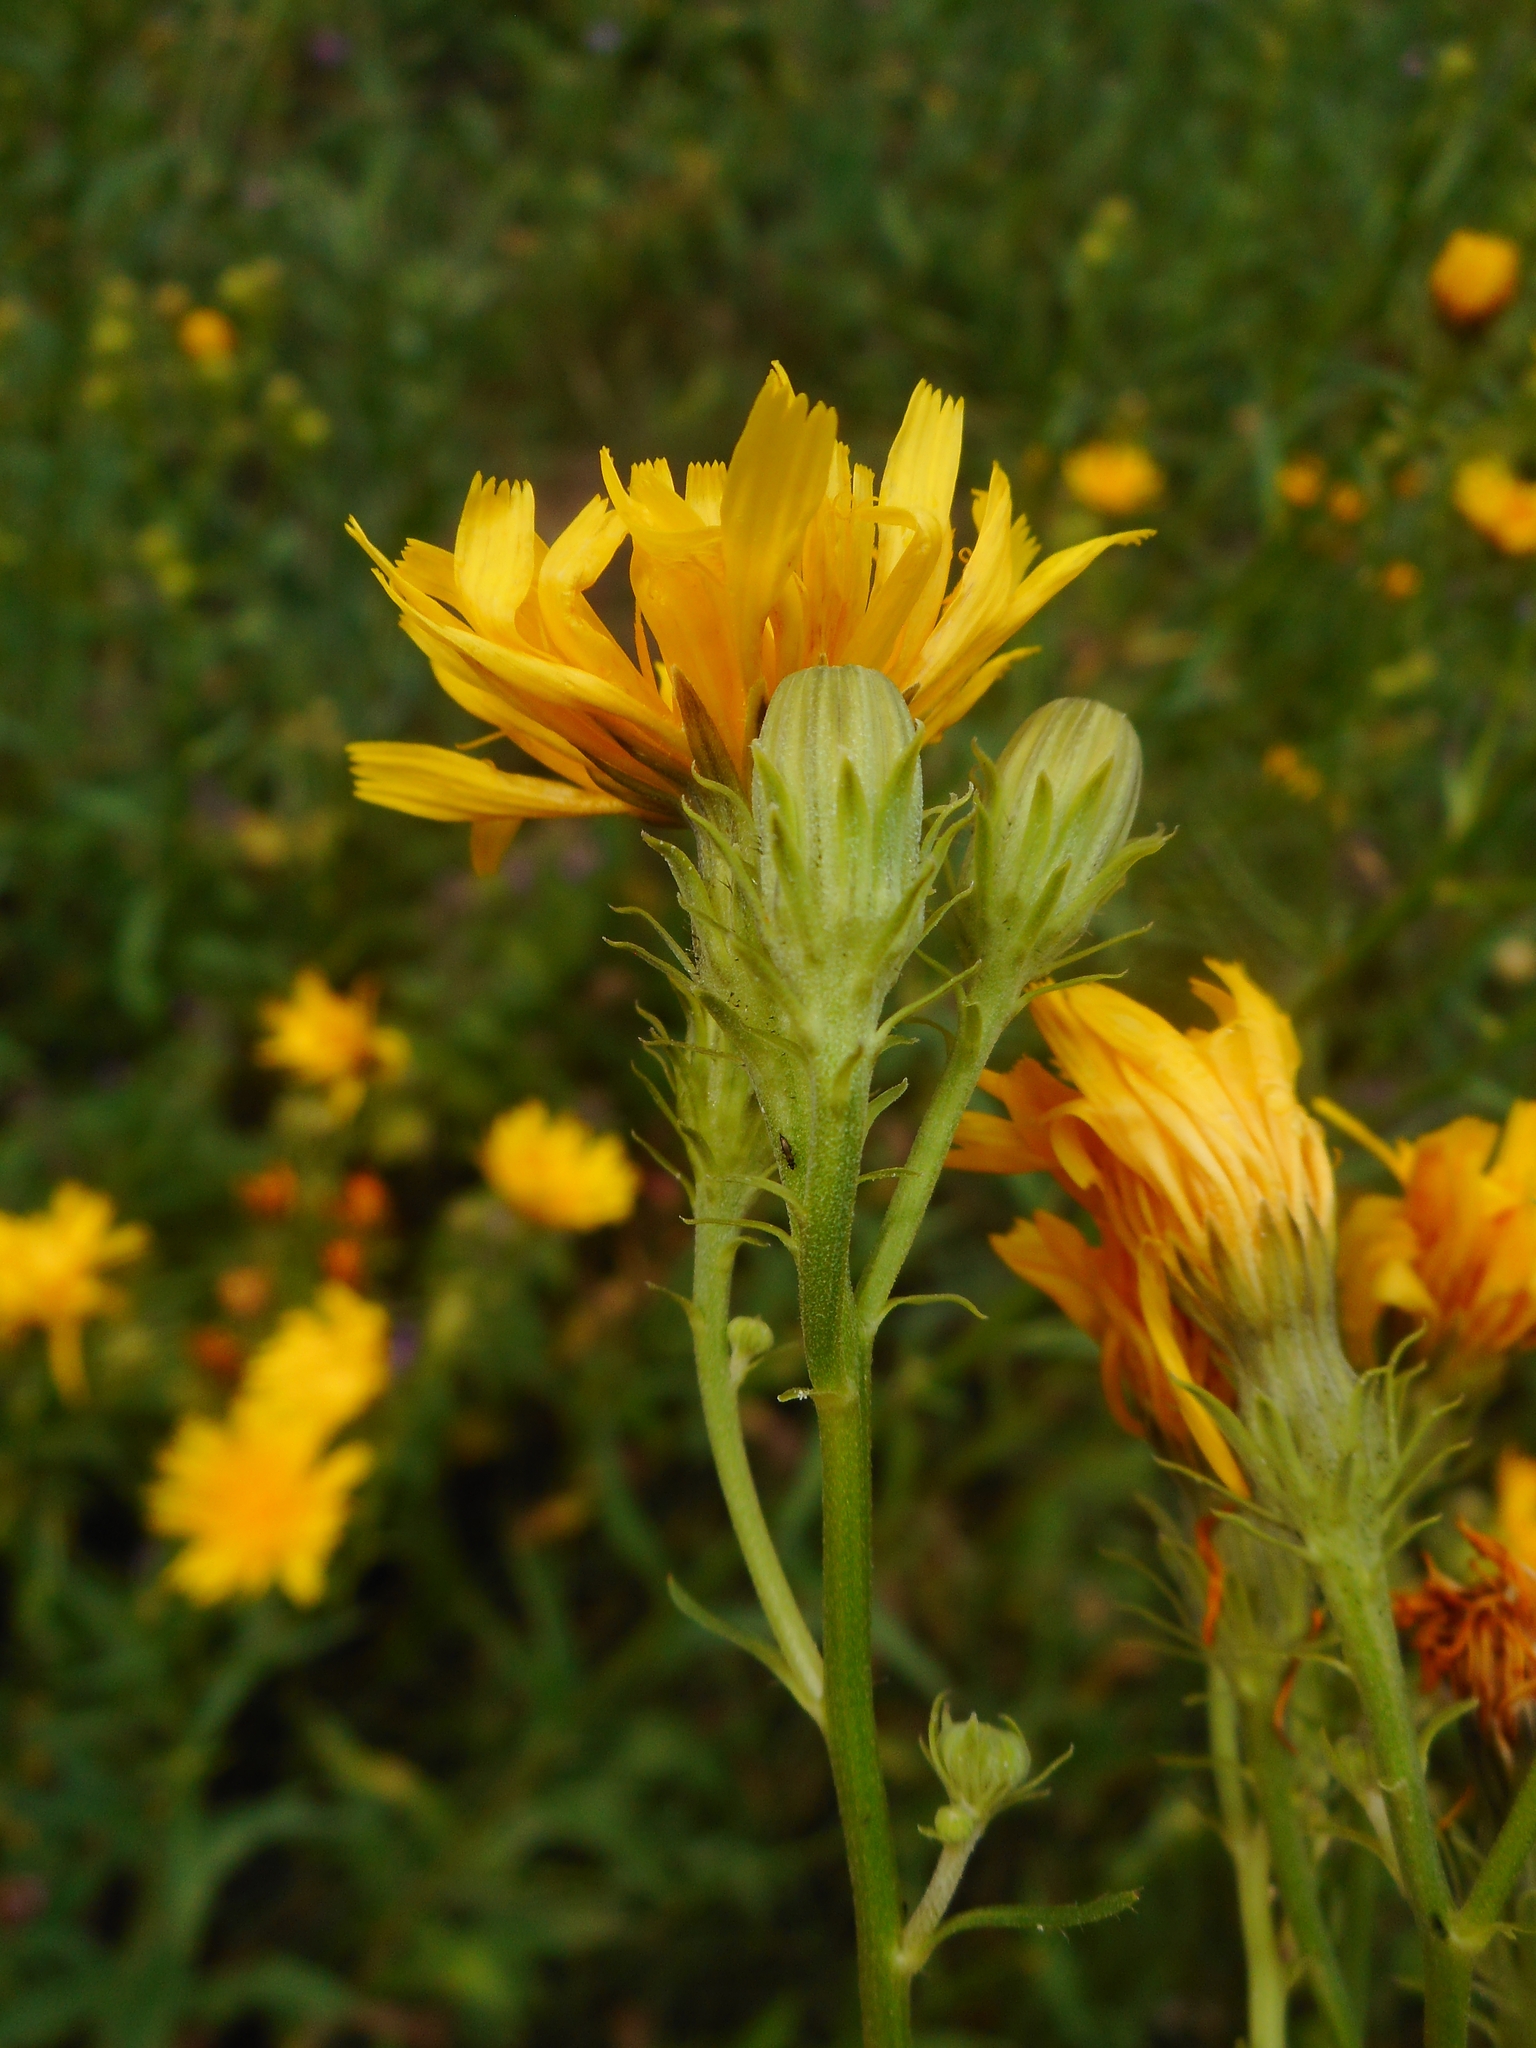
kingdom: Plantae
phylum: Tracheophyta
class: Magnoliopsida
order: Asterales
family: Asteraceae
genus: Picris
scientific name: Picris hieracioides
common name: Hawkweed oxtongue
